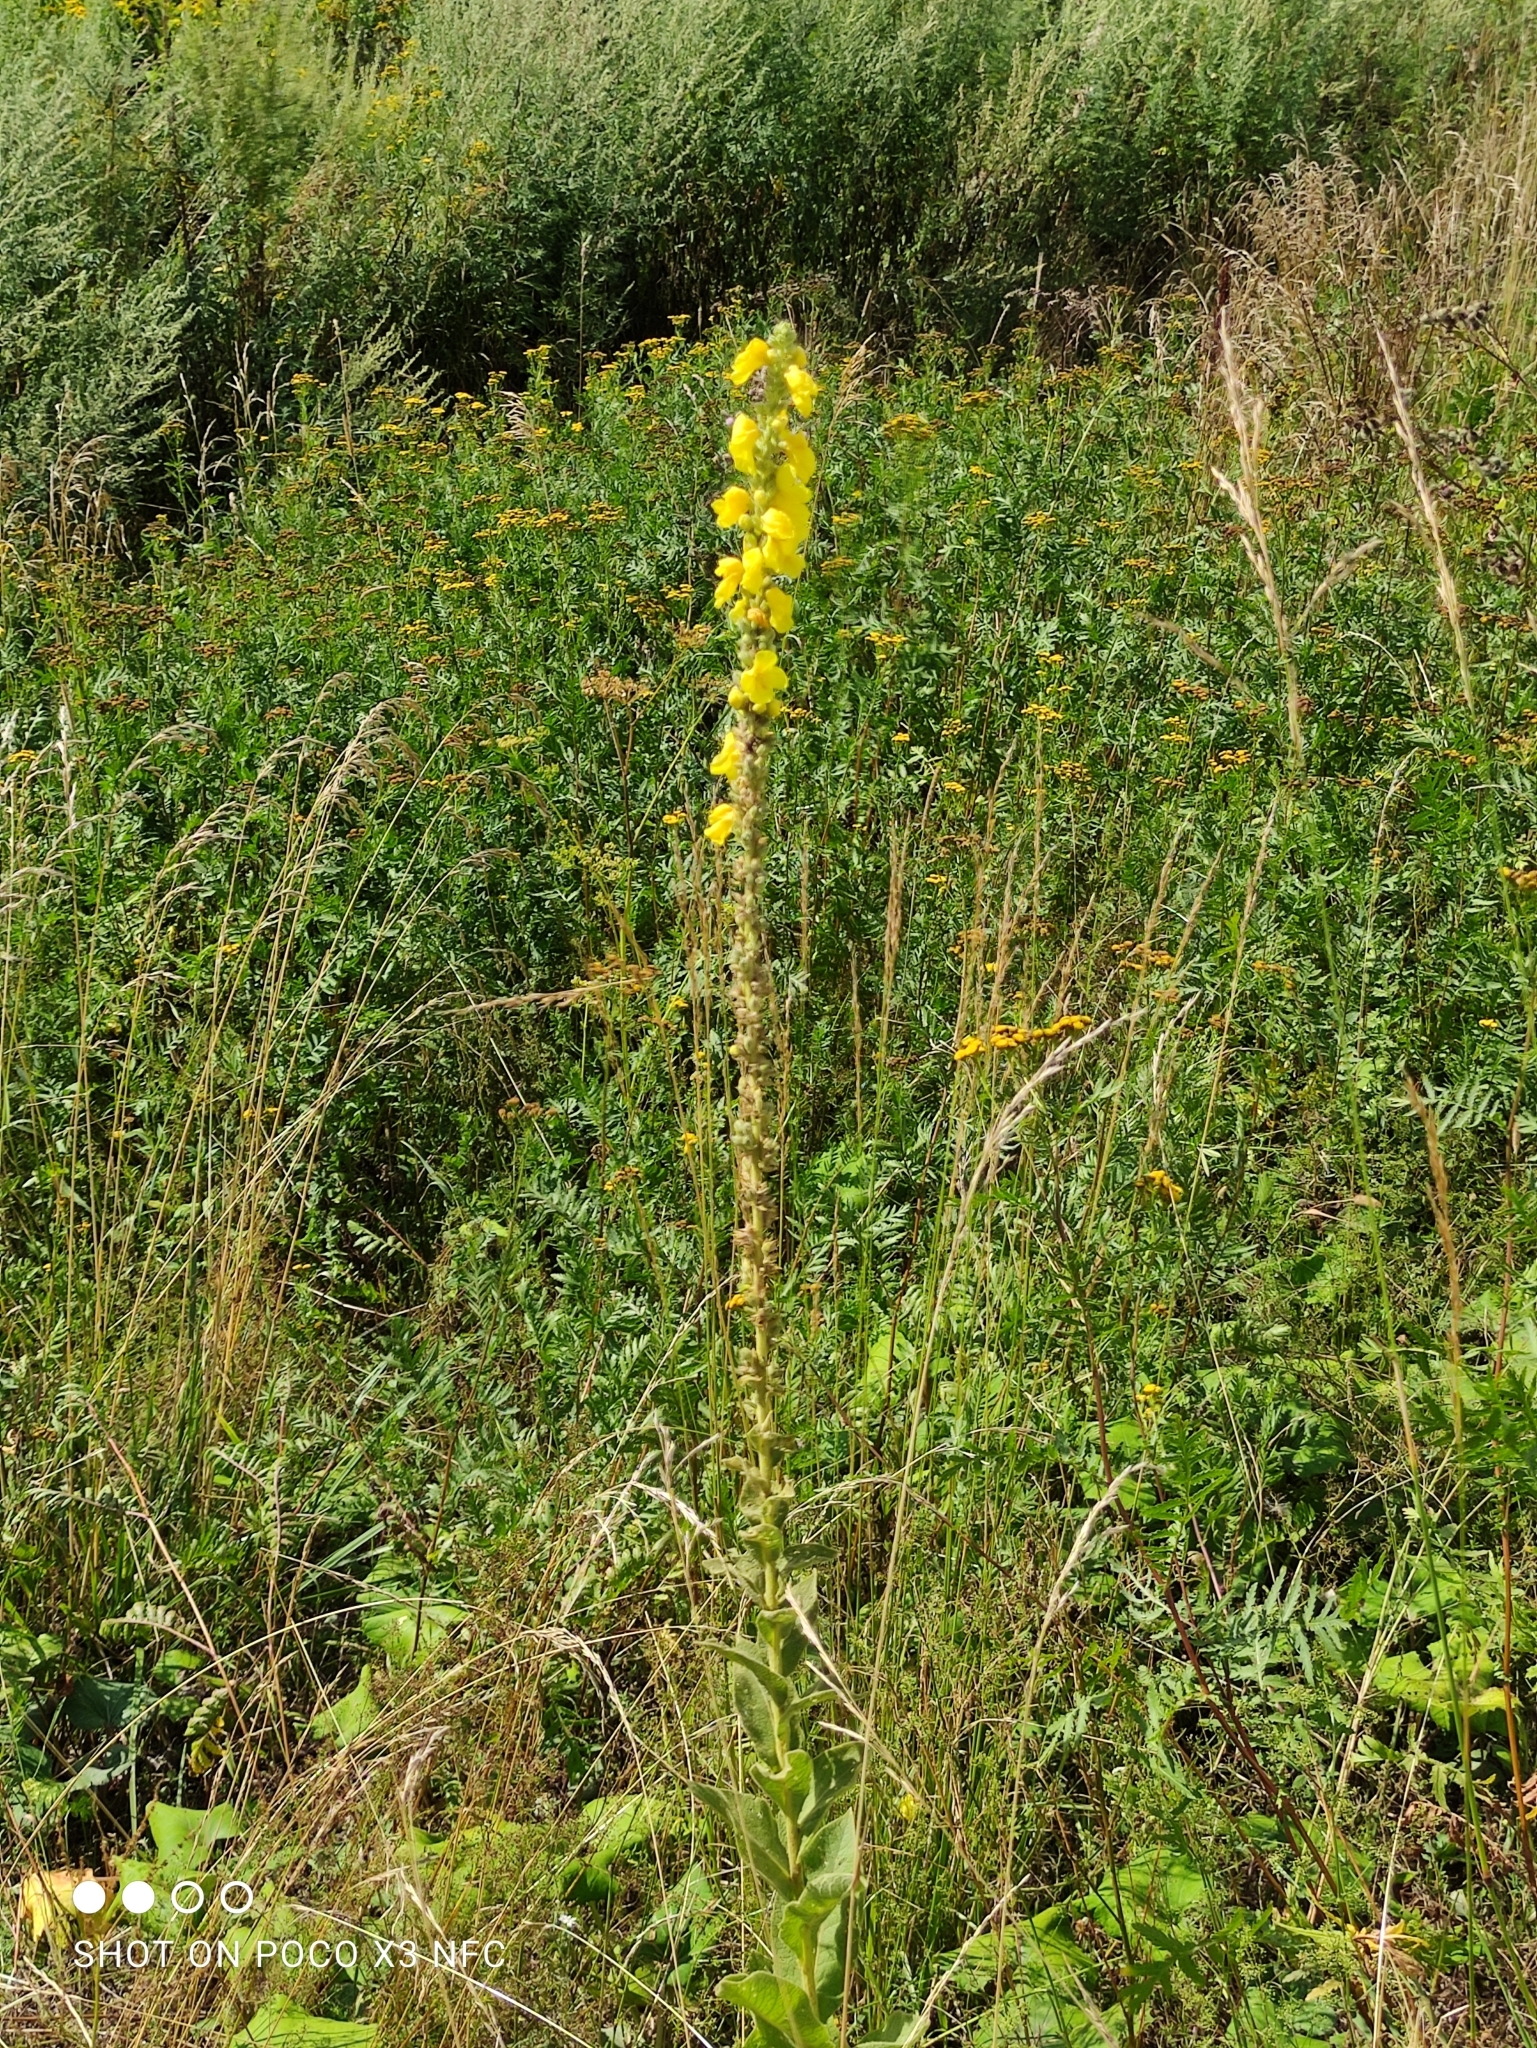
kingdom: Plantae
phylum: Tracheophyta
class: Magnoliopsida
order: Lamiales
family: Scrophulariaceae
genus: Verbascum
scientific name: Verbascum phlomoides
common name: Orange mullein
